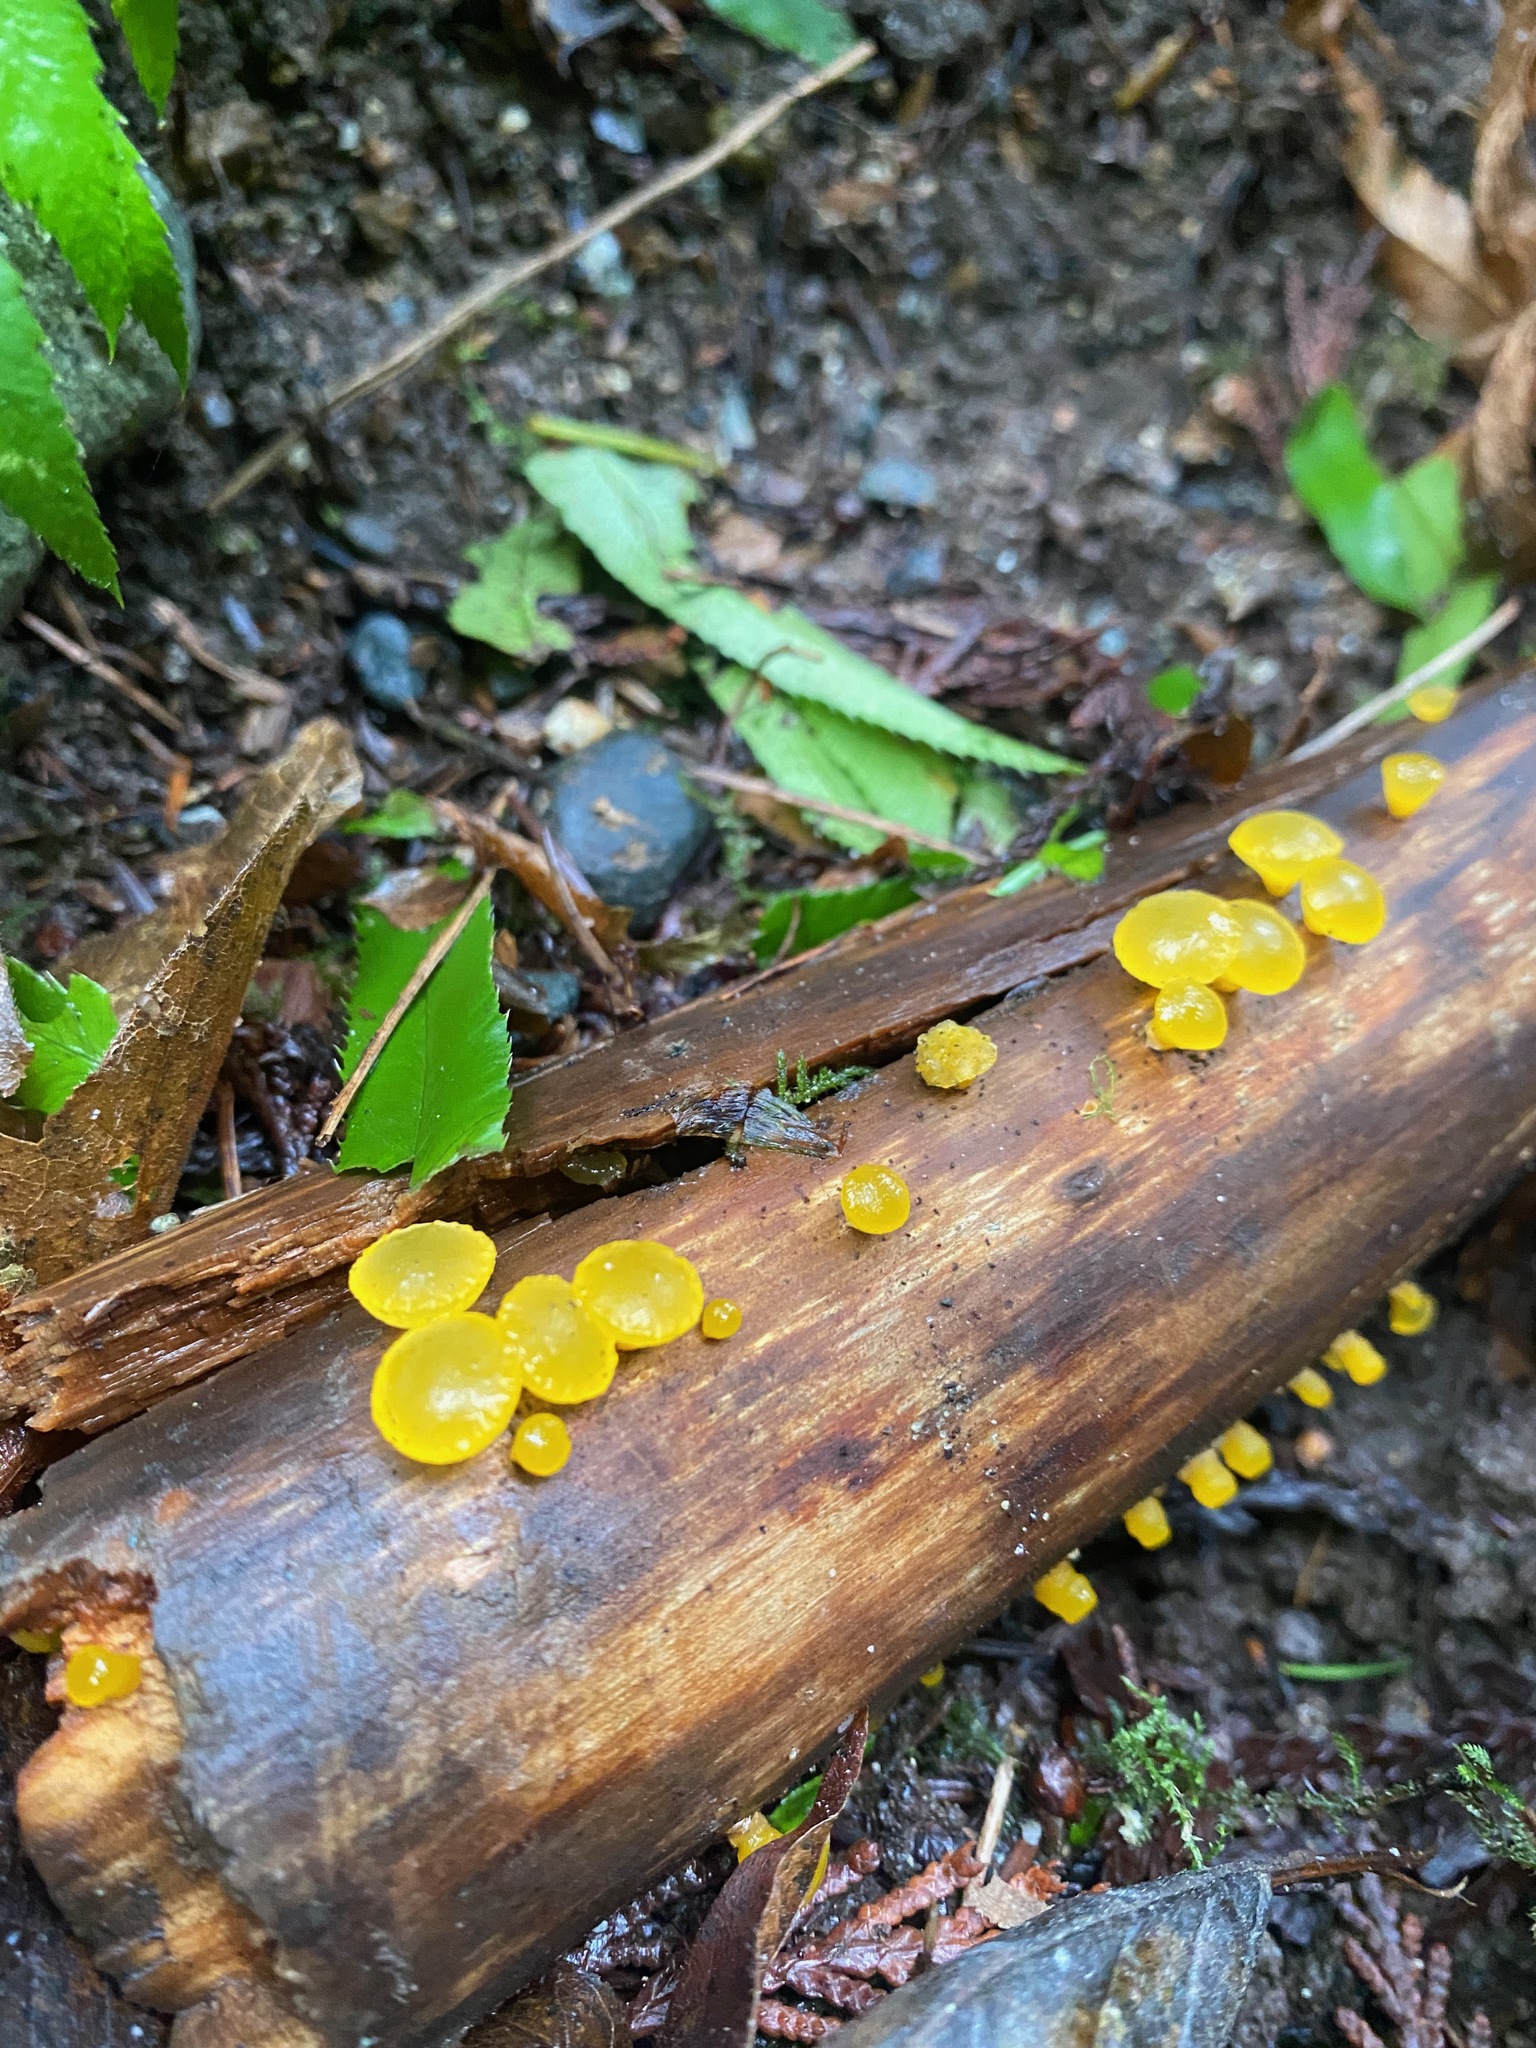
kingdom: Fungi
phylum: Basidiomycota
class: Dacrymycetes
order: Dacrymycetales
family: Dacrymycetaceae
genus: Guepiniopsis
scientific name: Guepiniopsis alpina
